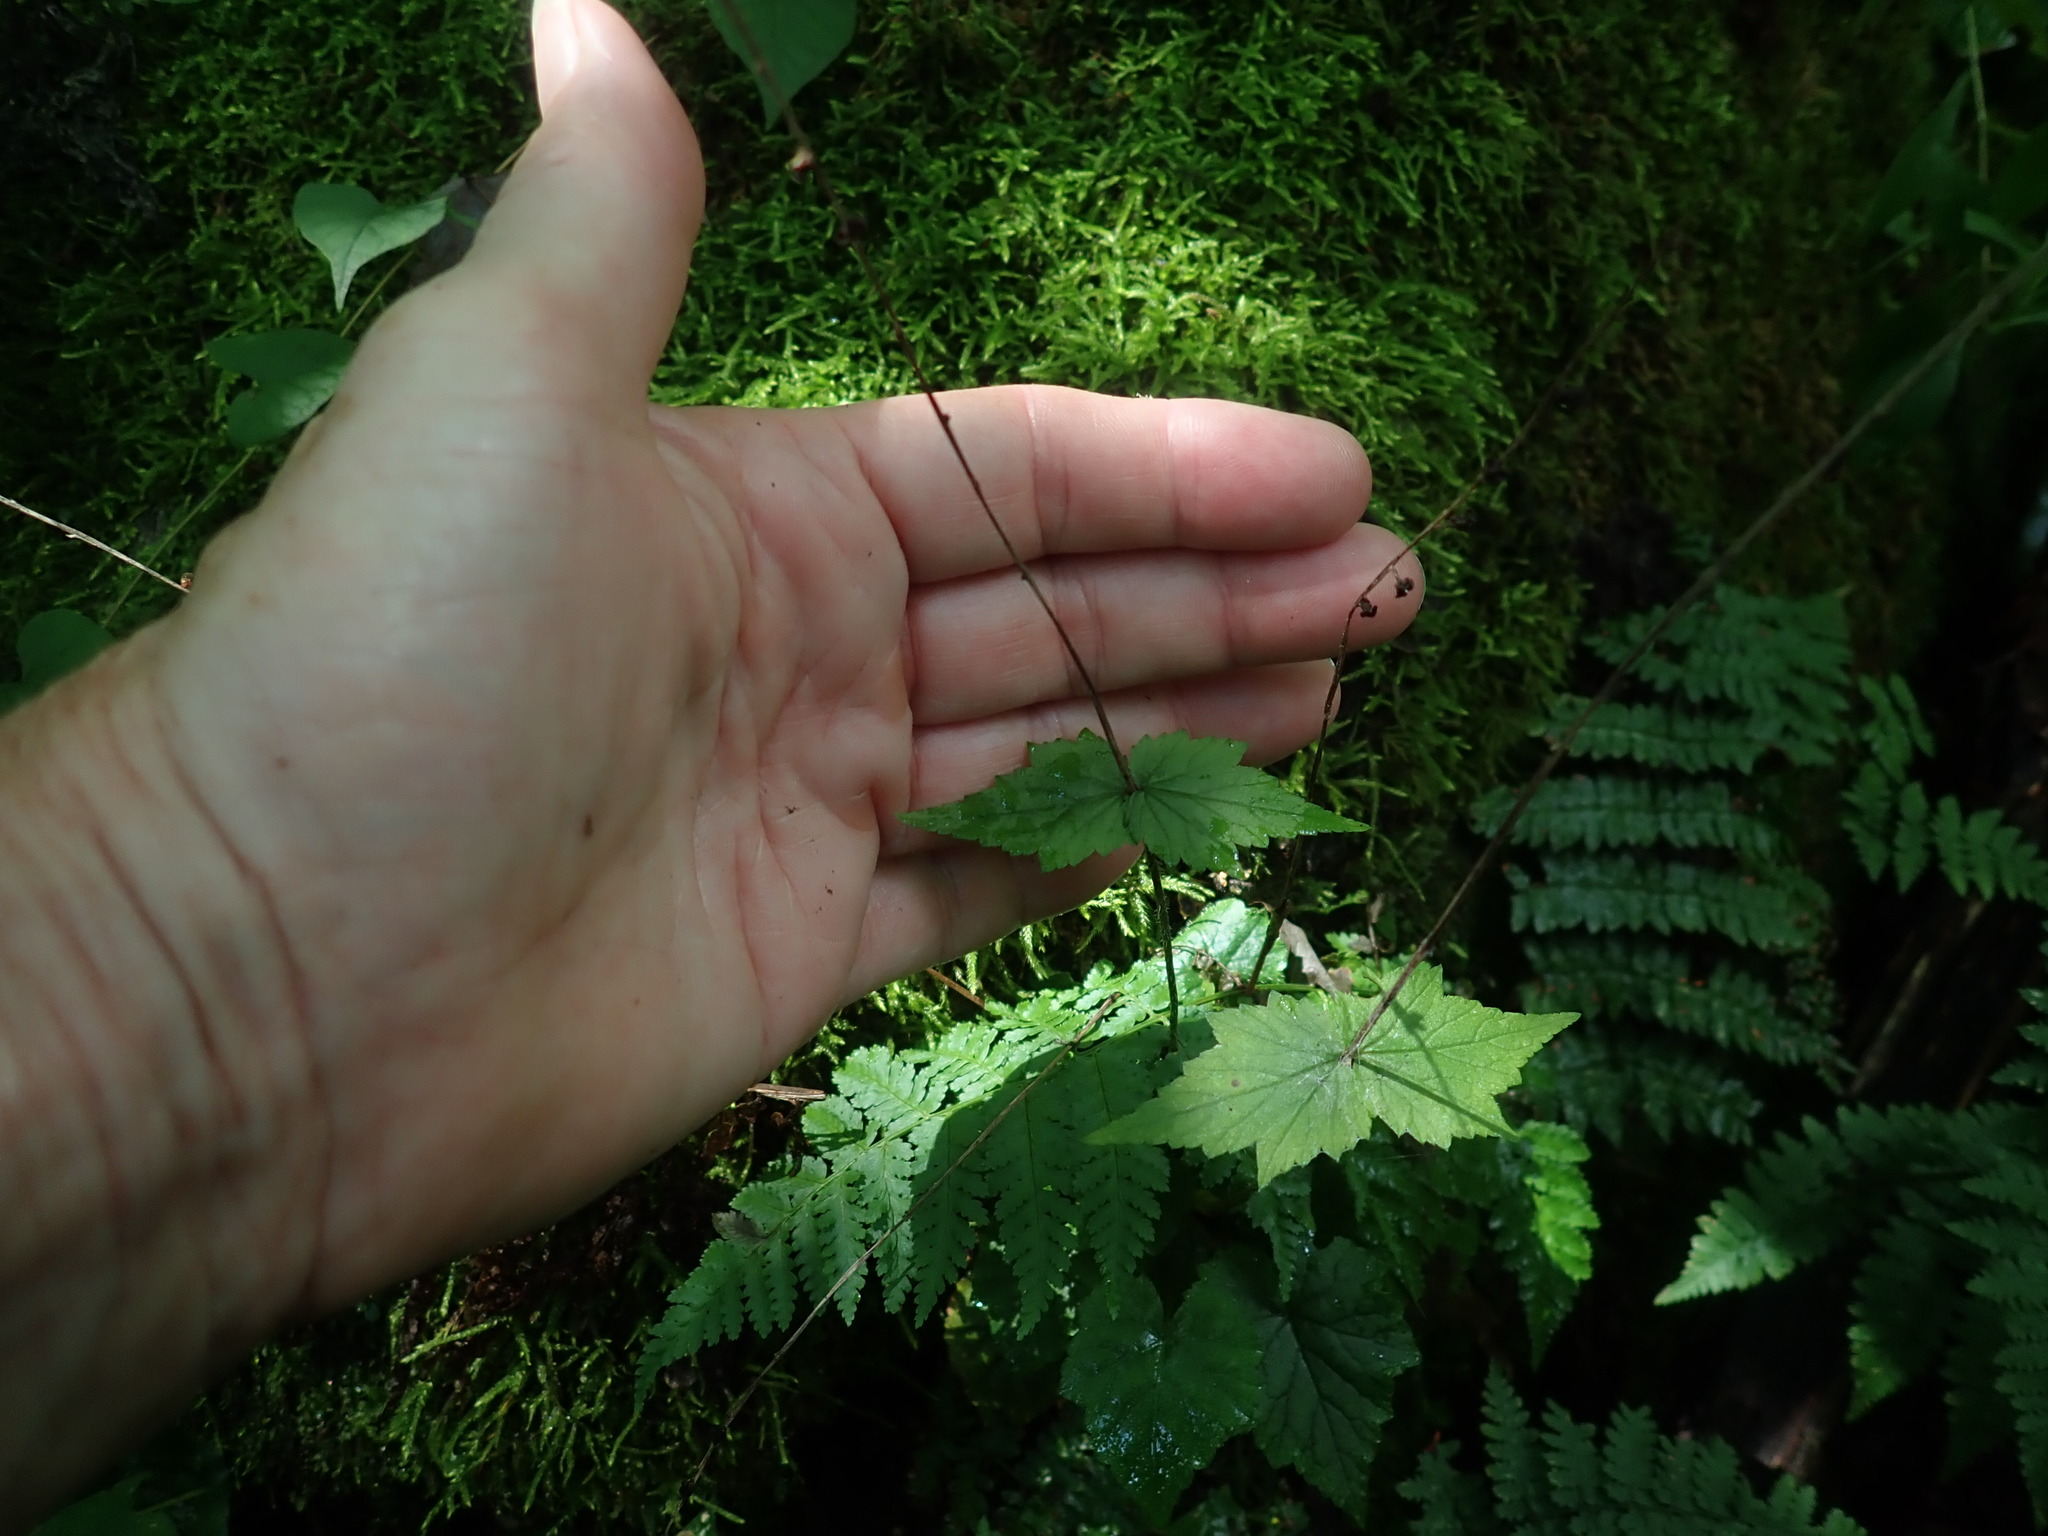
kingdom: Plantae
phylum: Tracheophyta
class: Magnoliopsida
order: Saxifragales
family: Saxifragaceae
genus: Mitella
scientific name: Mitella diphylla
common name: Coolwort
